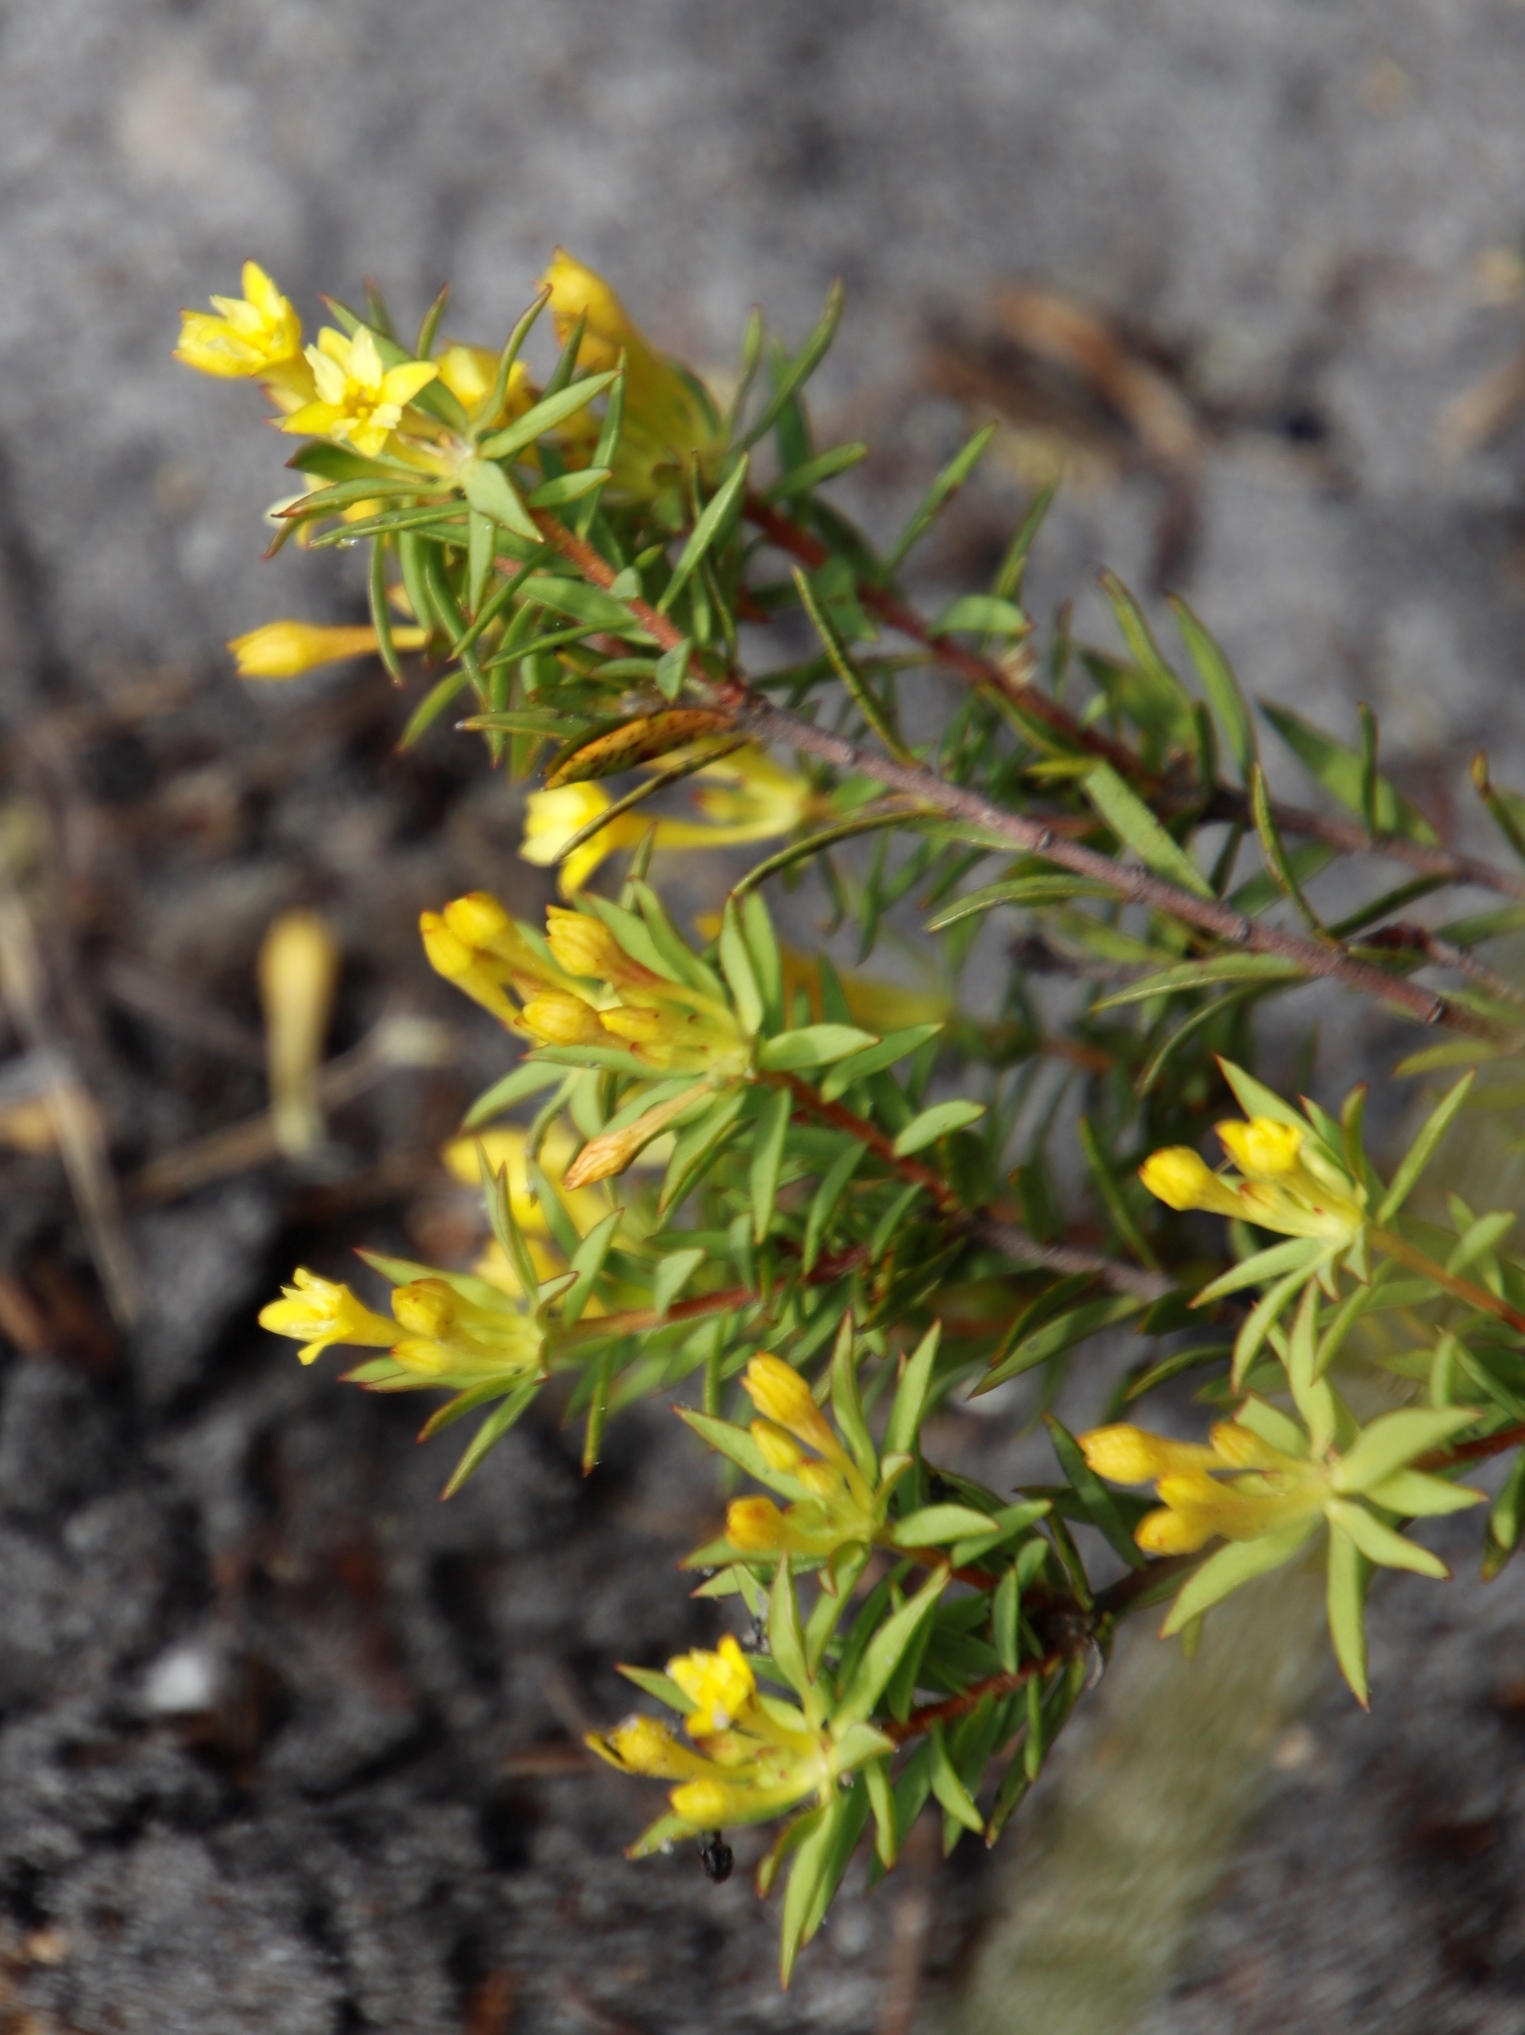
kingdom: Plantae
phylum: Tracheophyta
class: Magnoliopsida
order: Malvales
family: Thymelaeaceae
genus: Gnidia
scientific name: Gnidia juniperifolia
